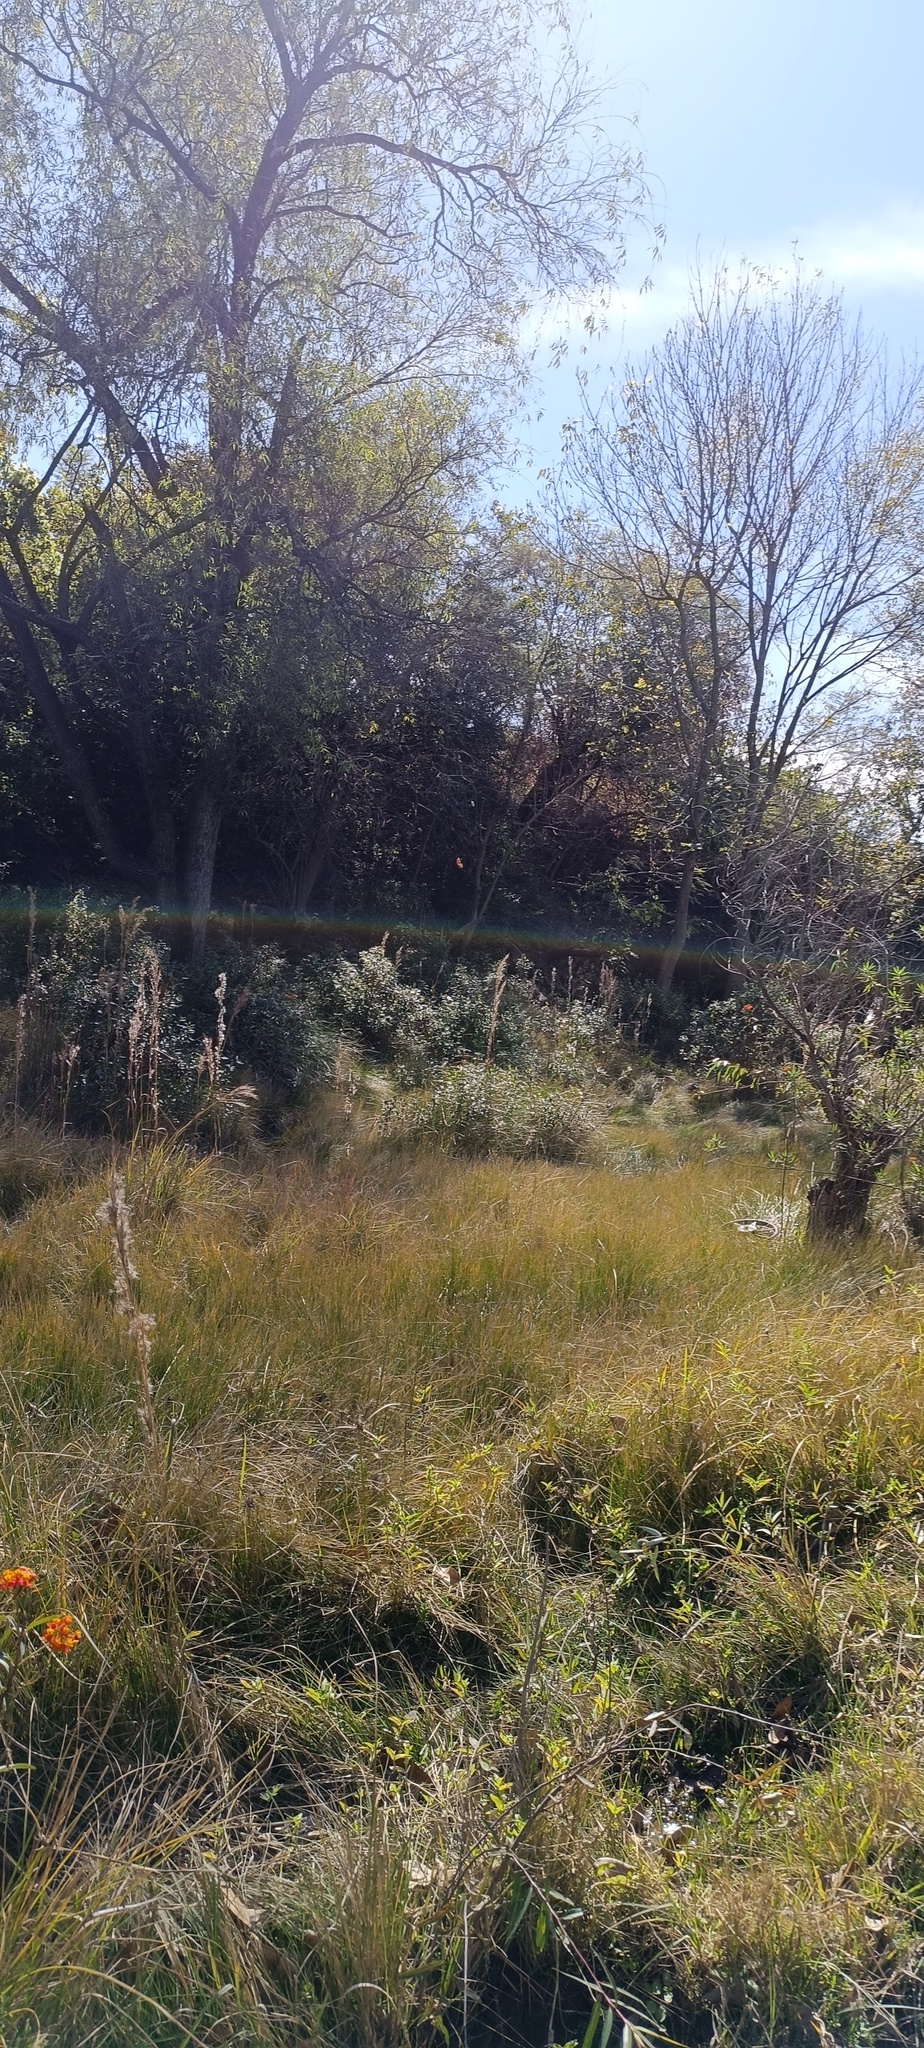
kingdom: Animalia
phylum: Arthropoda
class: Insecta
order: Lepidoptera
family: Nymphalidae
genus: Danaus
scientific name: Danaus plexippus
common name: Monarch
